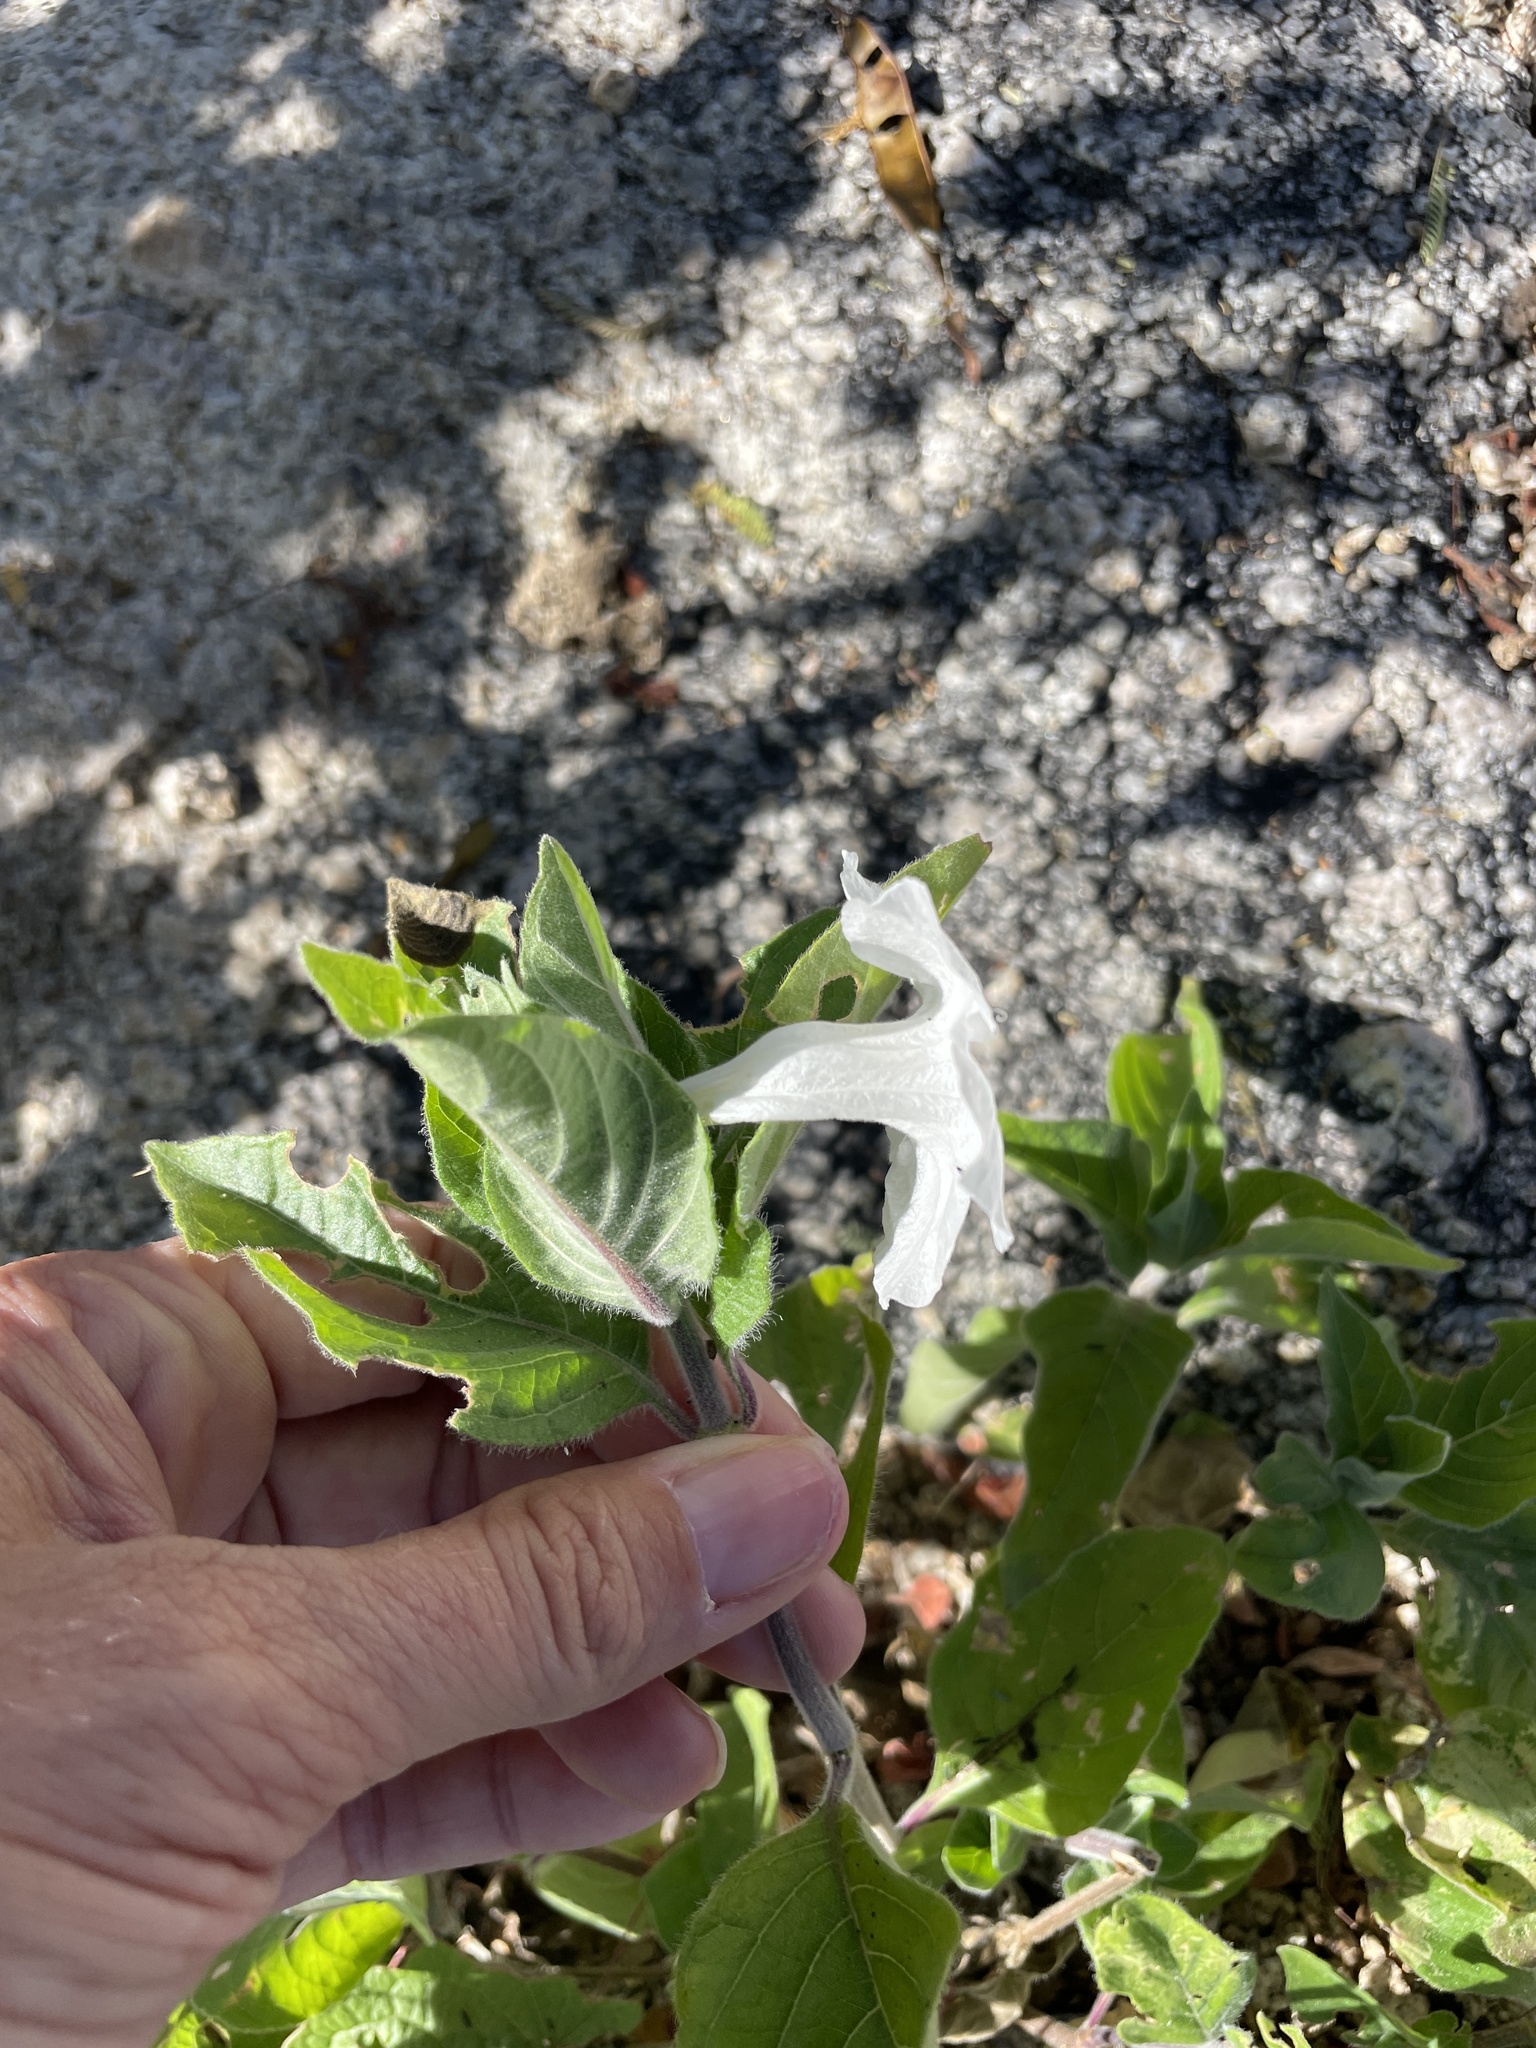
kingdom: Plantae
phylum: Tracheophyta
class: Magnoliopsida
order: Lamiales
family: Acanthaceae
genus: Ruellia
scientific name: Ruellia leucantha
